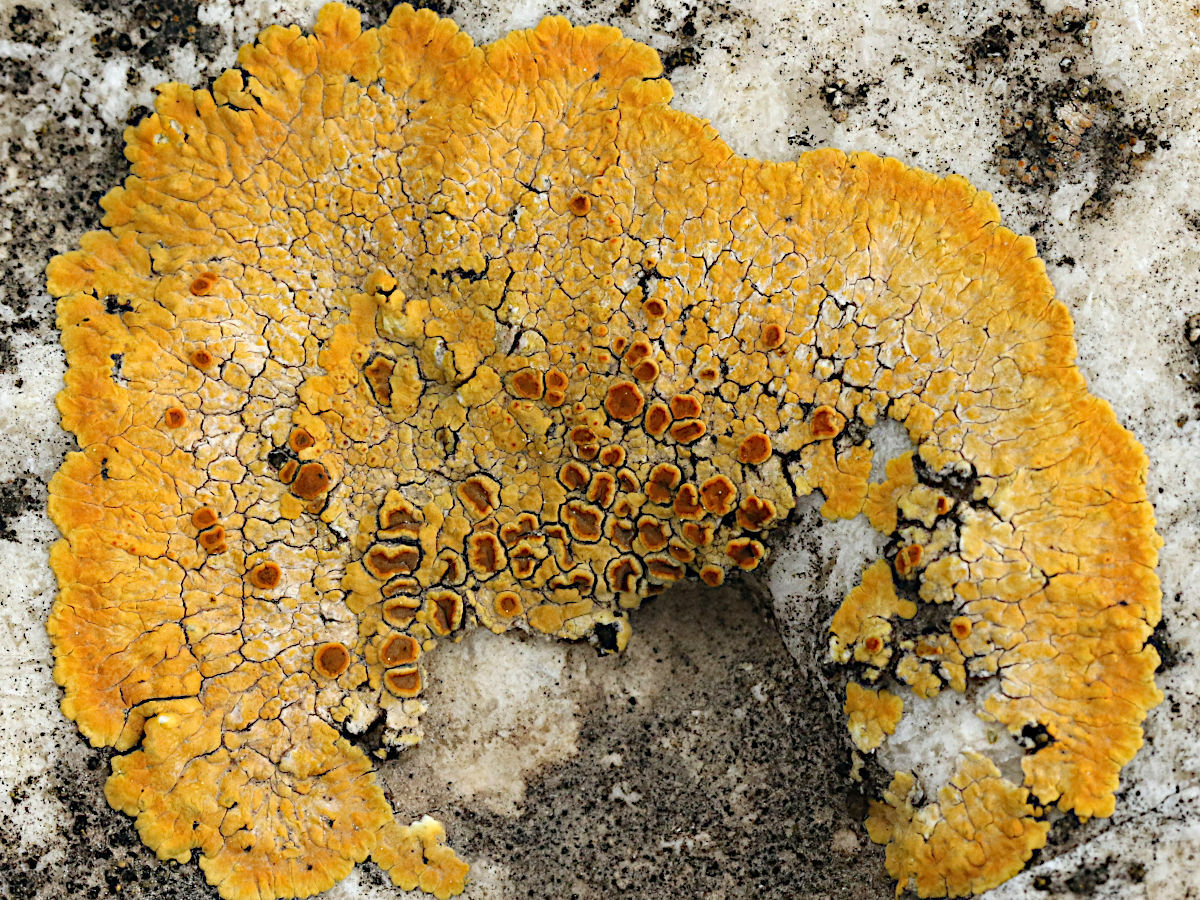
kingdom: Fungi
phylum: Ascomycota
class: Lecanoromycetes
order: Teloschistales
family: Teloschistaceae
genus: Variospora
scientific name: Variospora aurantia
